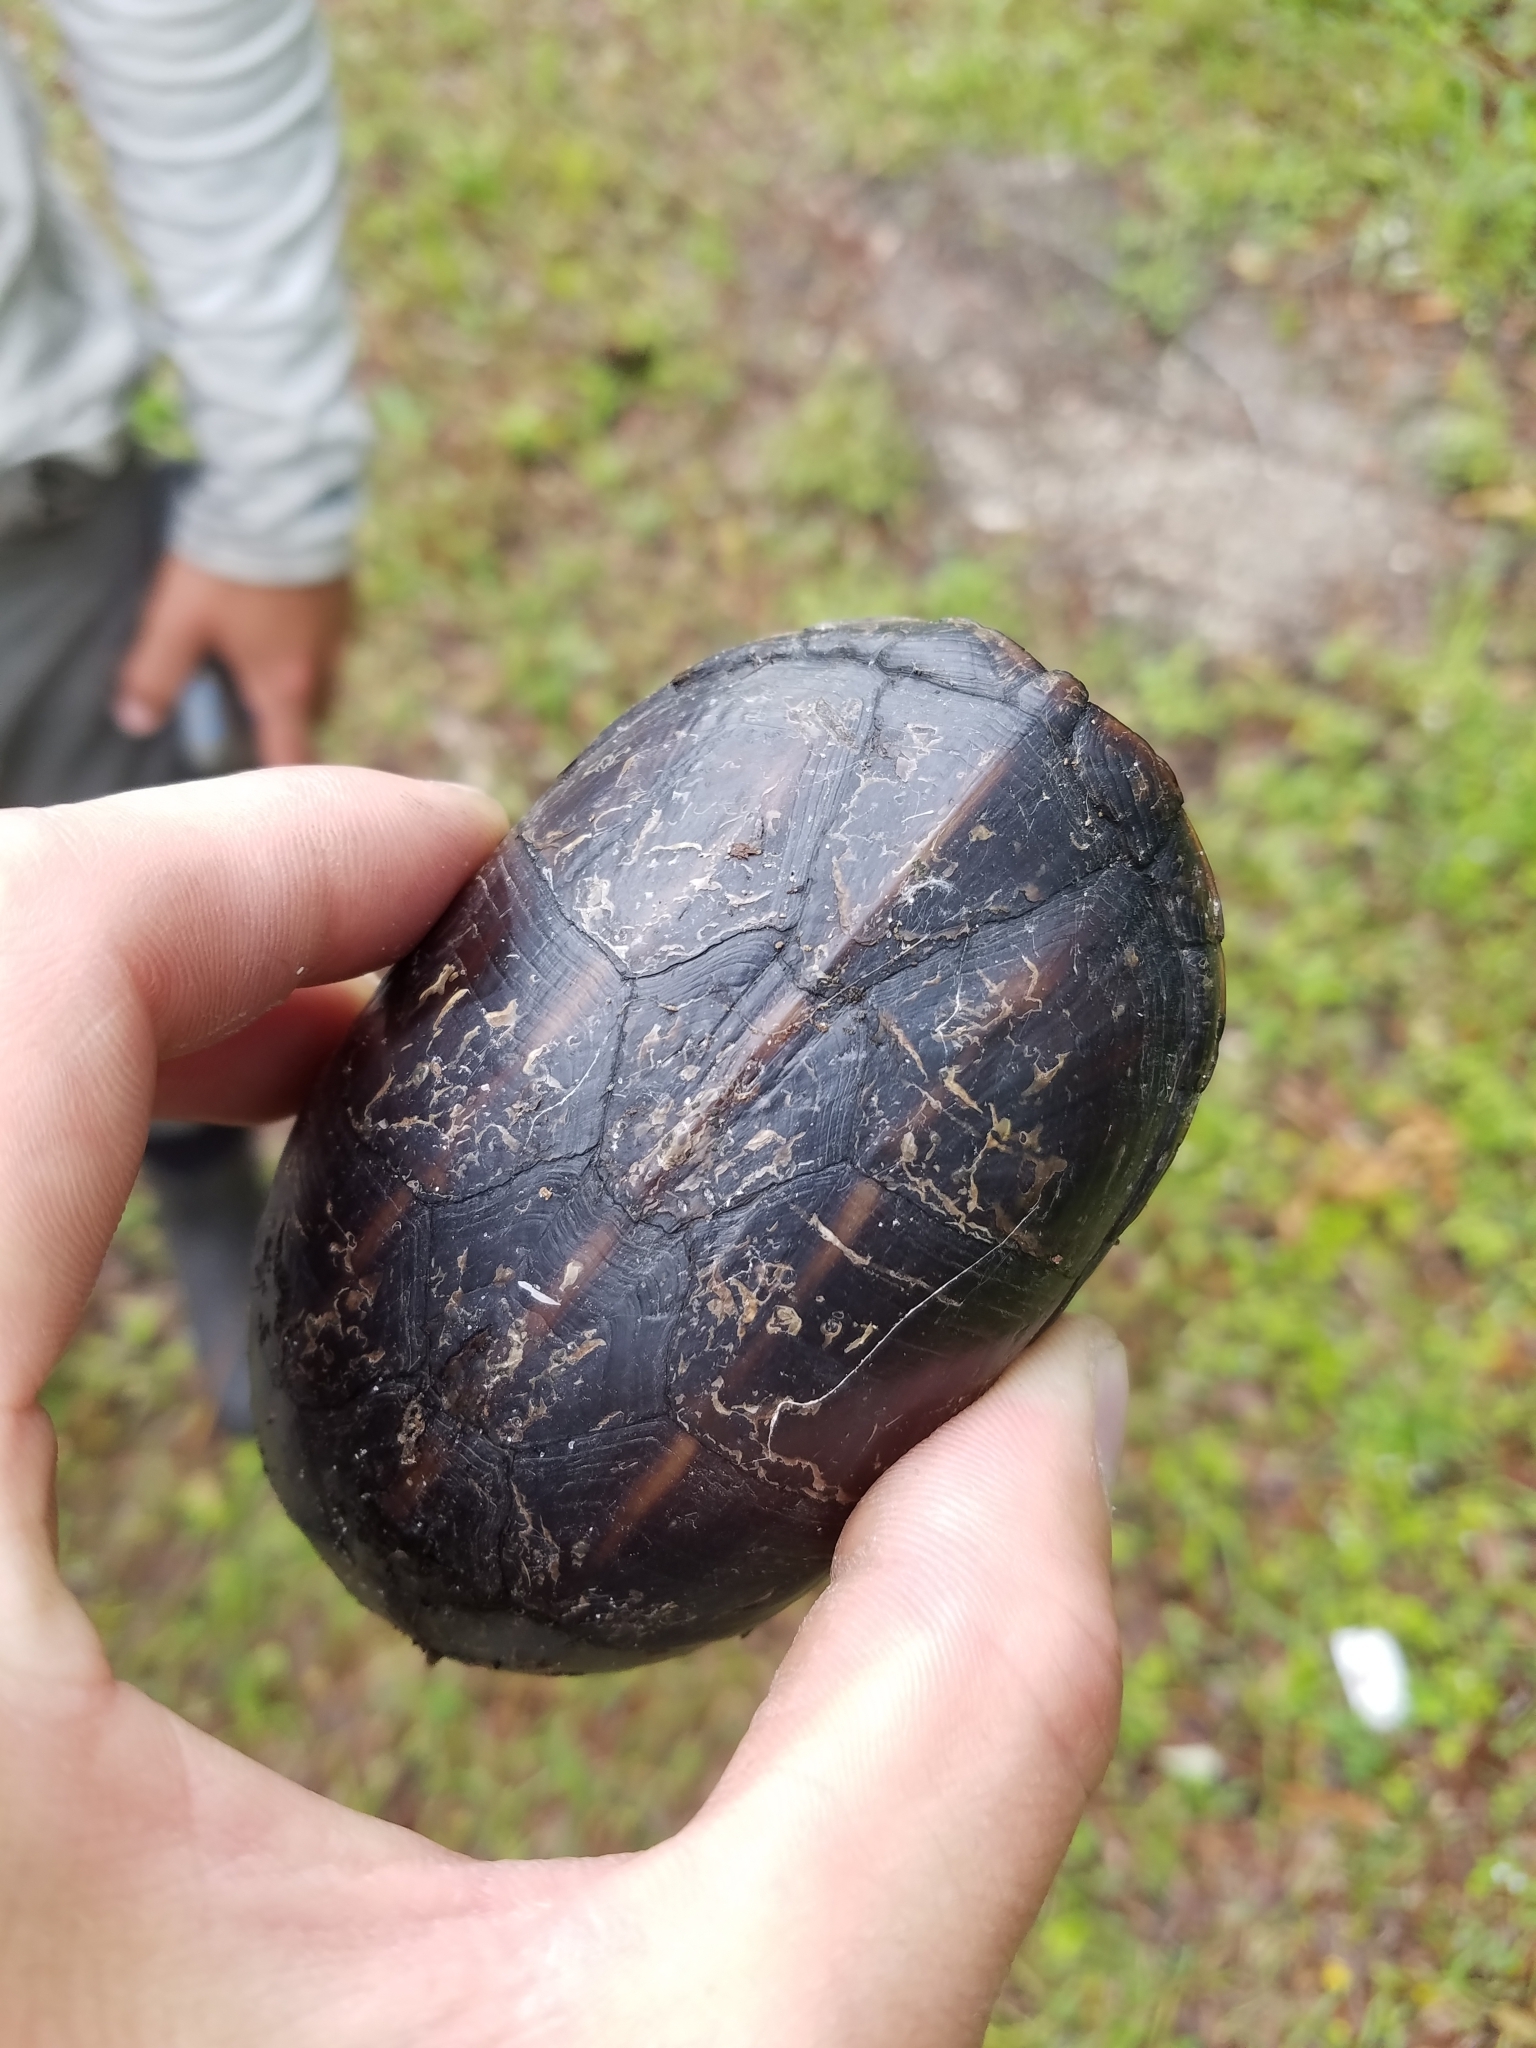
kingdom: Animalia
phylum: Chordata
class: Testudines
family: Kinosternidae
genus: Kinosternon
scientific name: Kinosternon baurii
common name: Striped mud turtle
